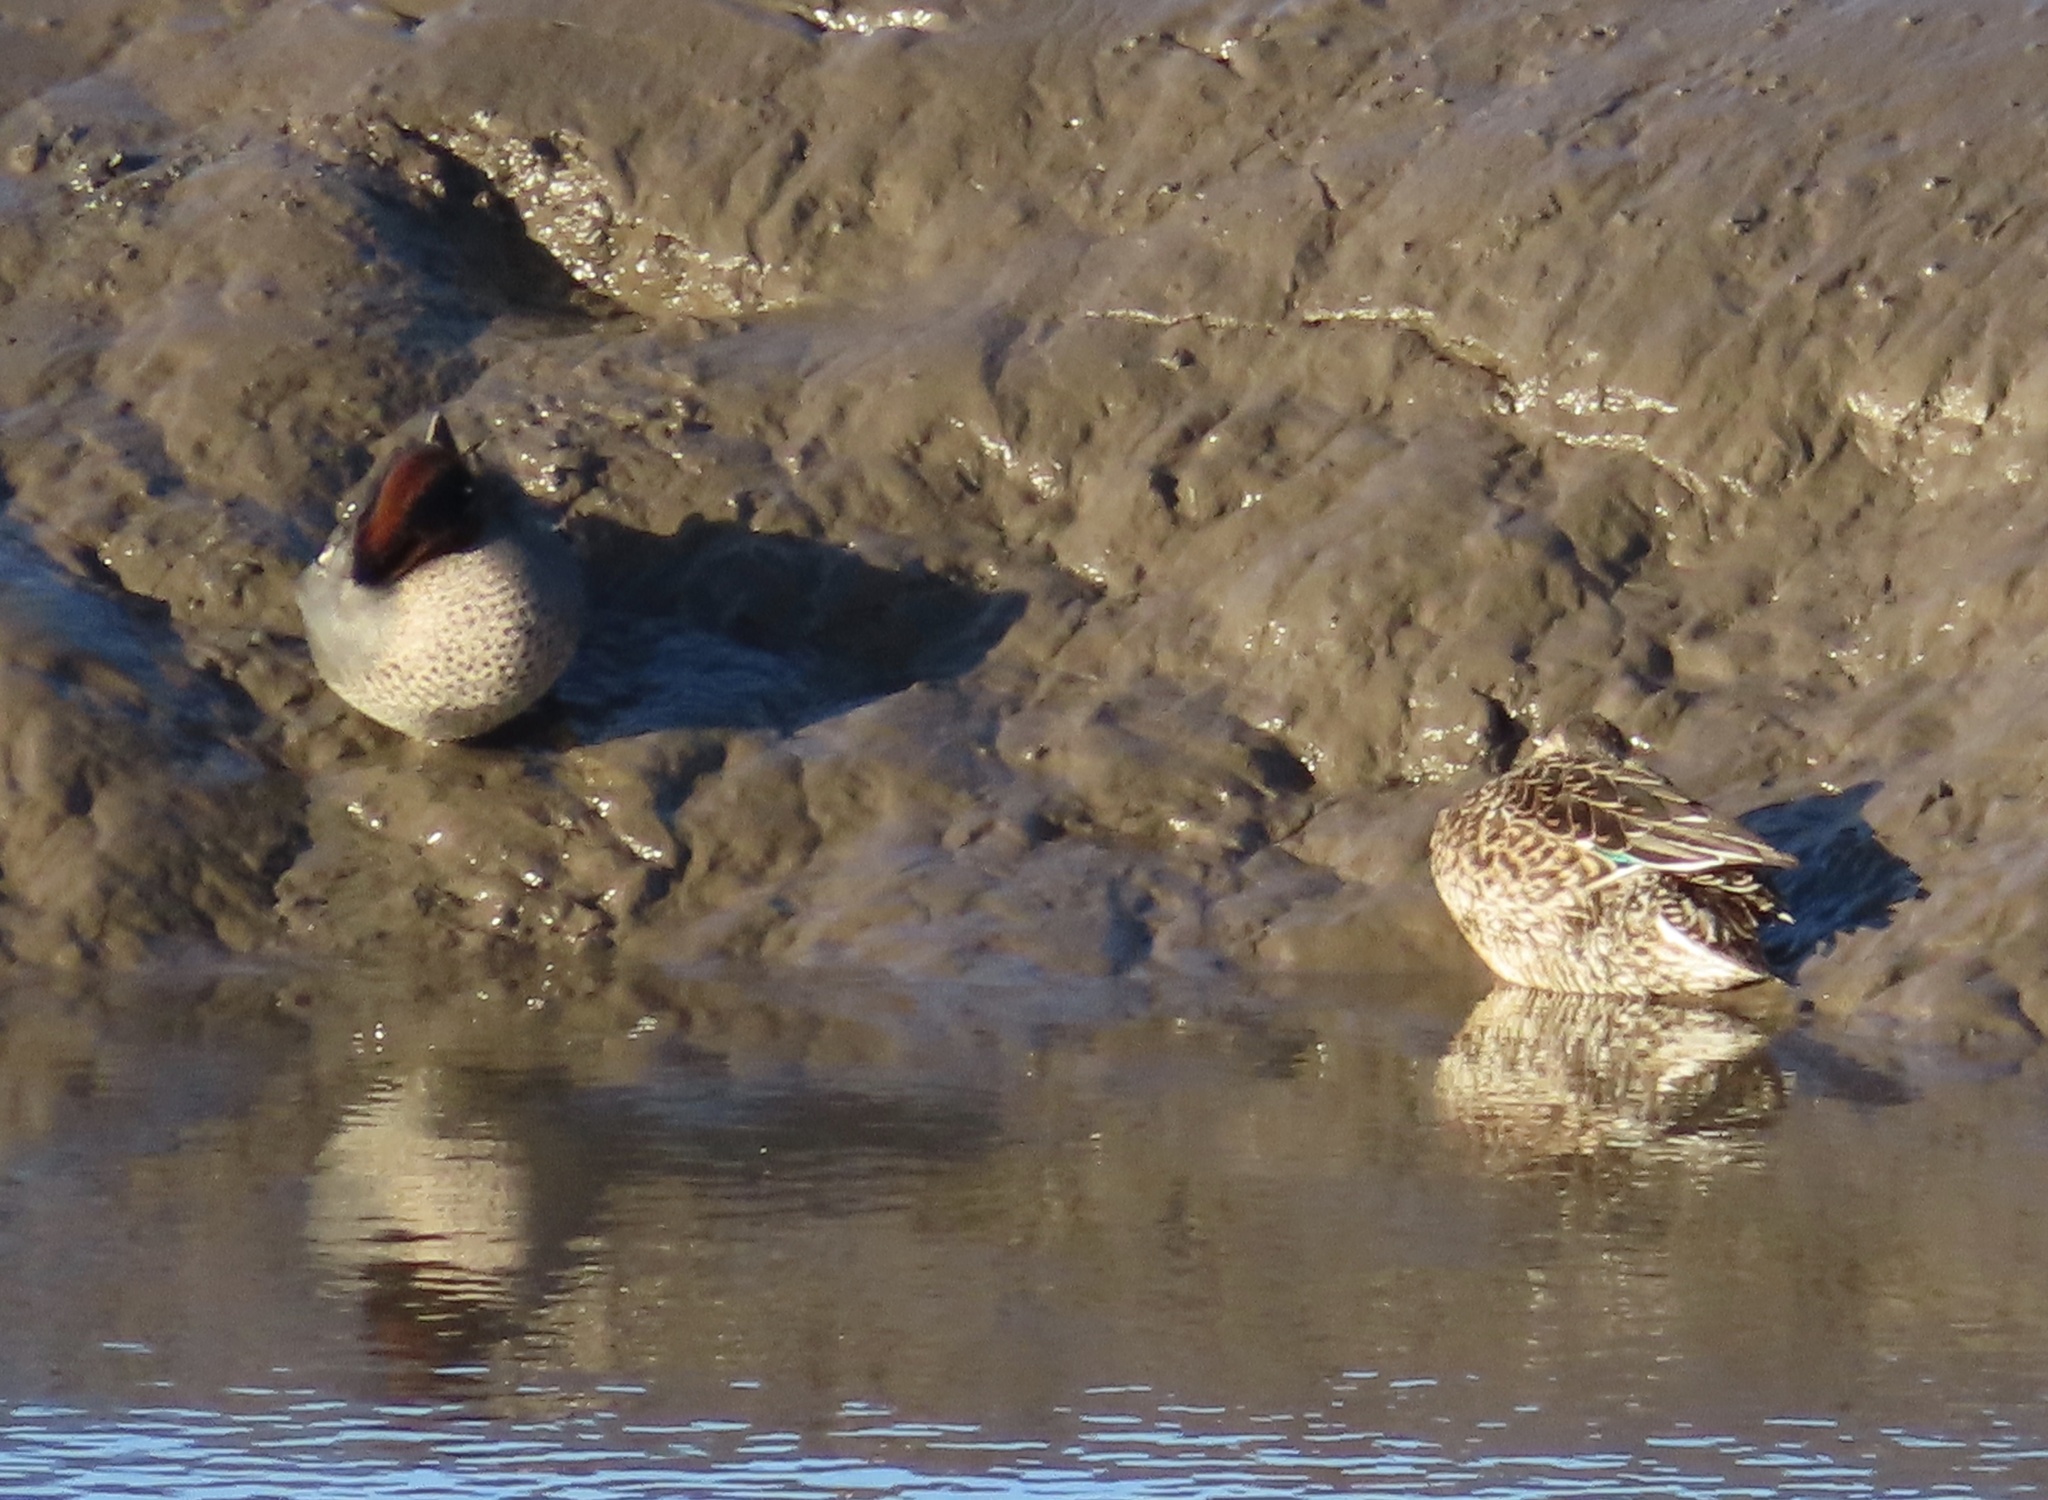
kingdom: Animalia
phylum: Chordata
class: Aves
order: Anseriformes
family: Anatidae
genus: Anas
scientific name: Anas crecca
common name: Eurasian teal
